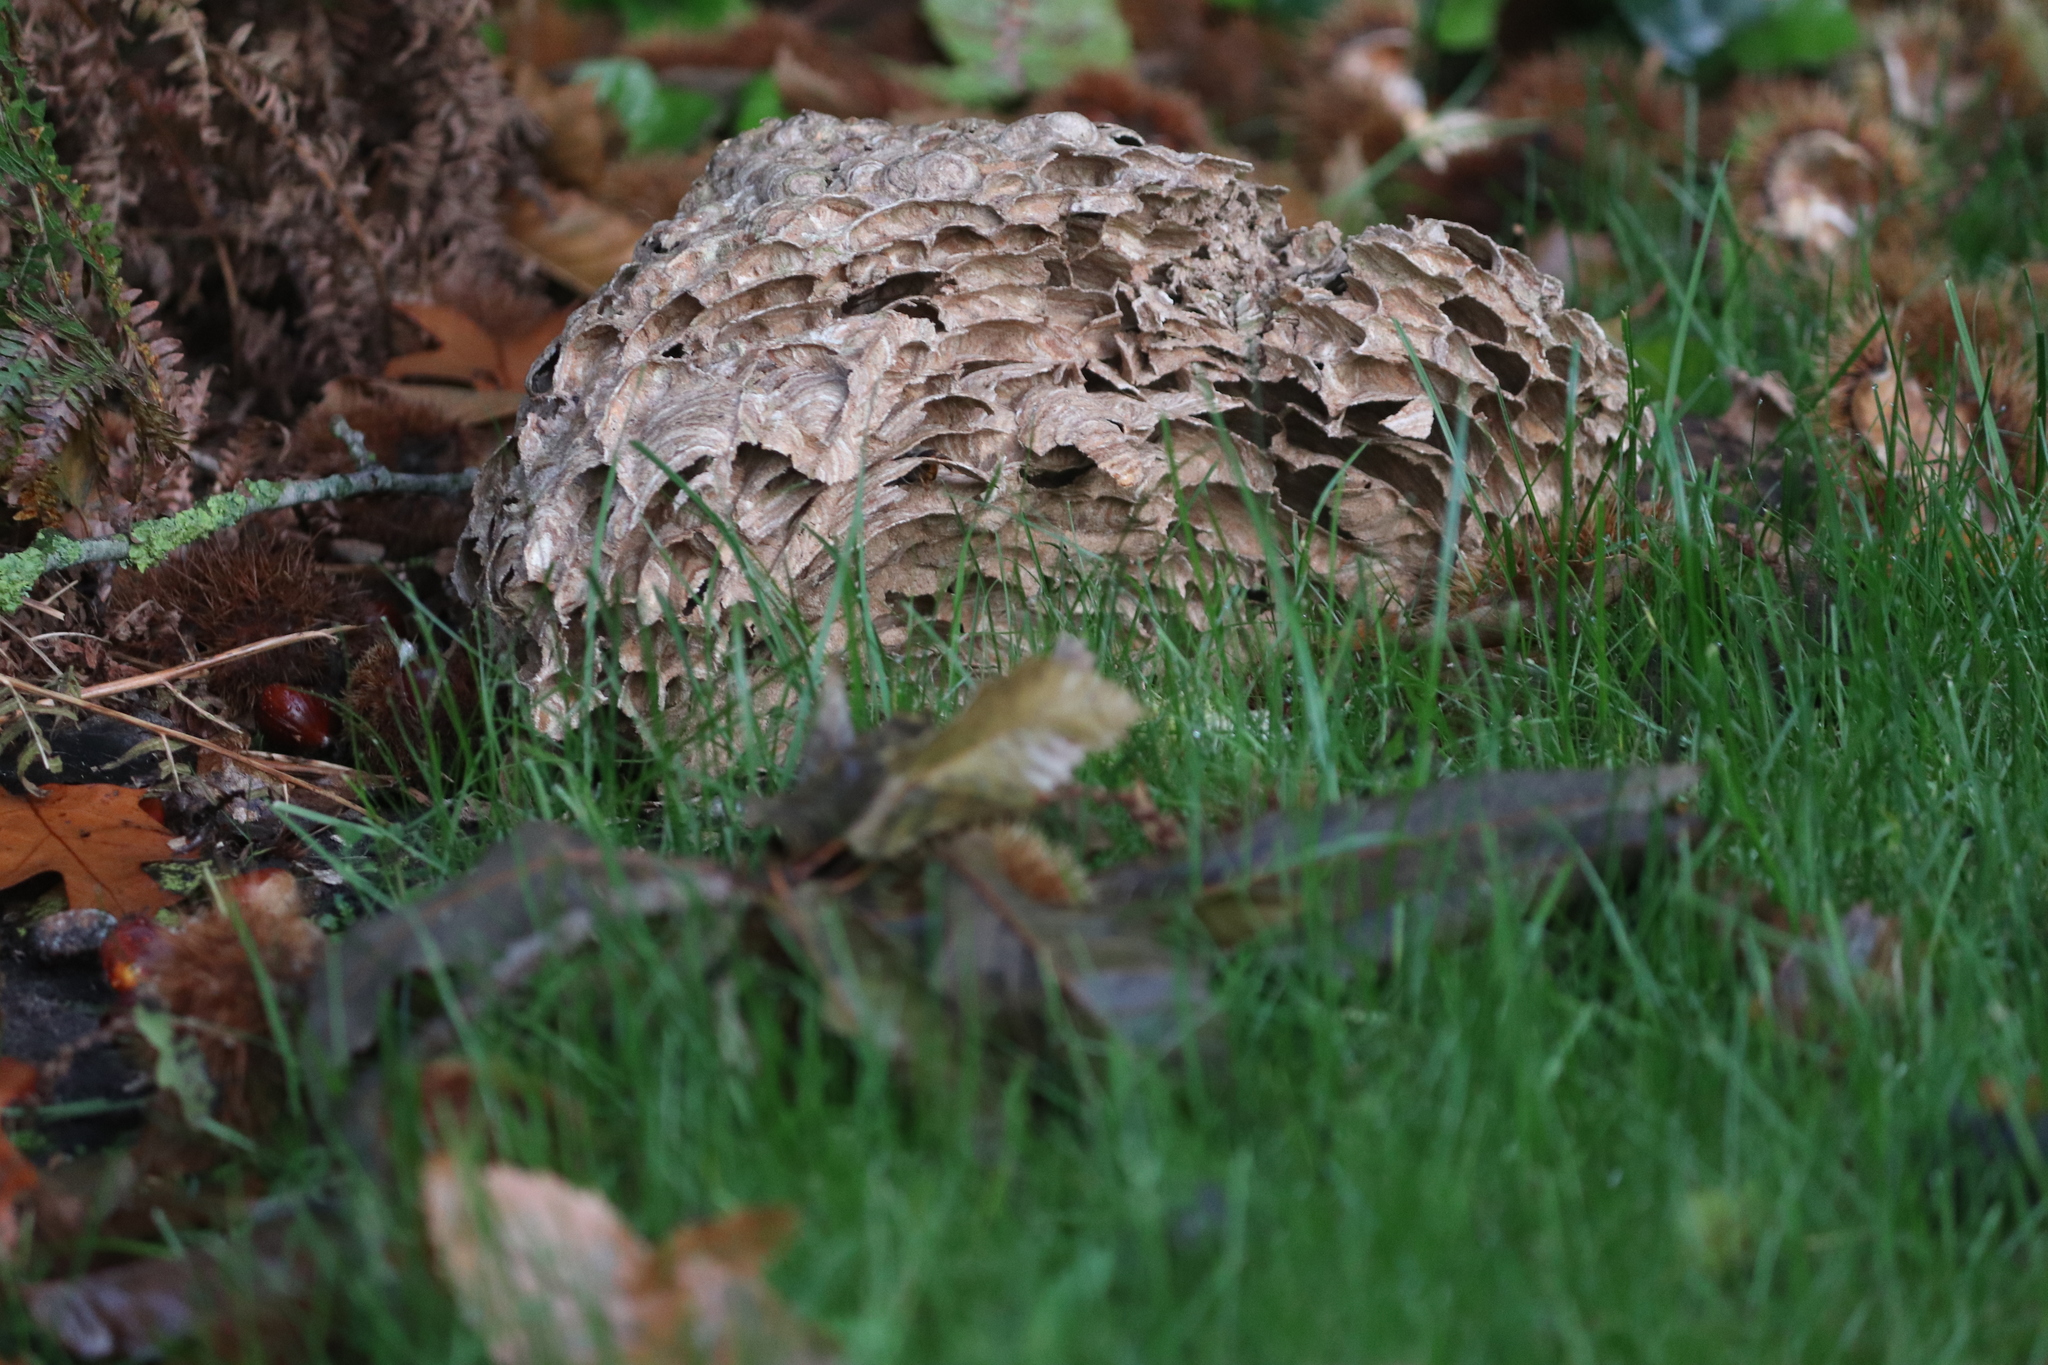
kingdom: Animalia
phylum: Arthropoda
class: Insecta
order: Hymenoptera
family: Vespidae
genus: Vespa
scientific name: Vespa velutina
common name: Asian hornet
